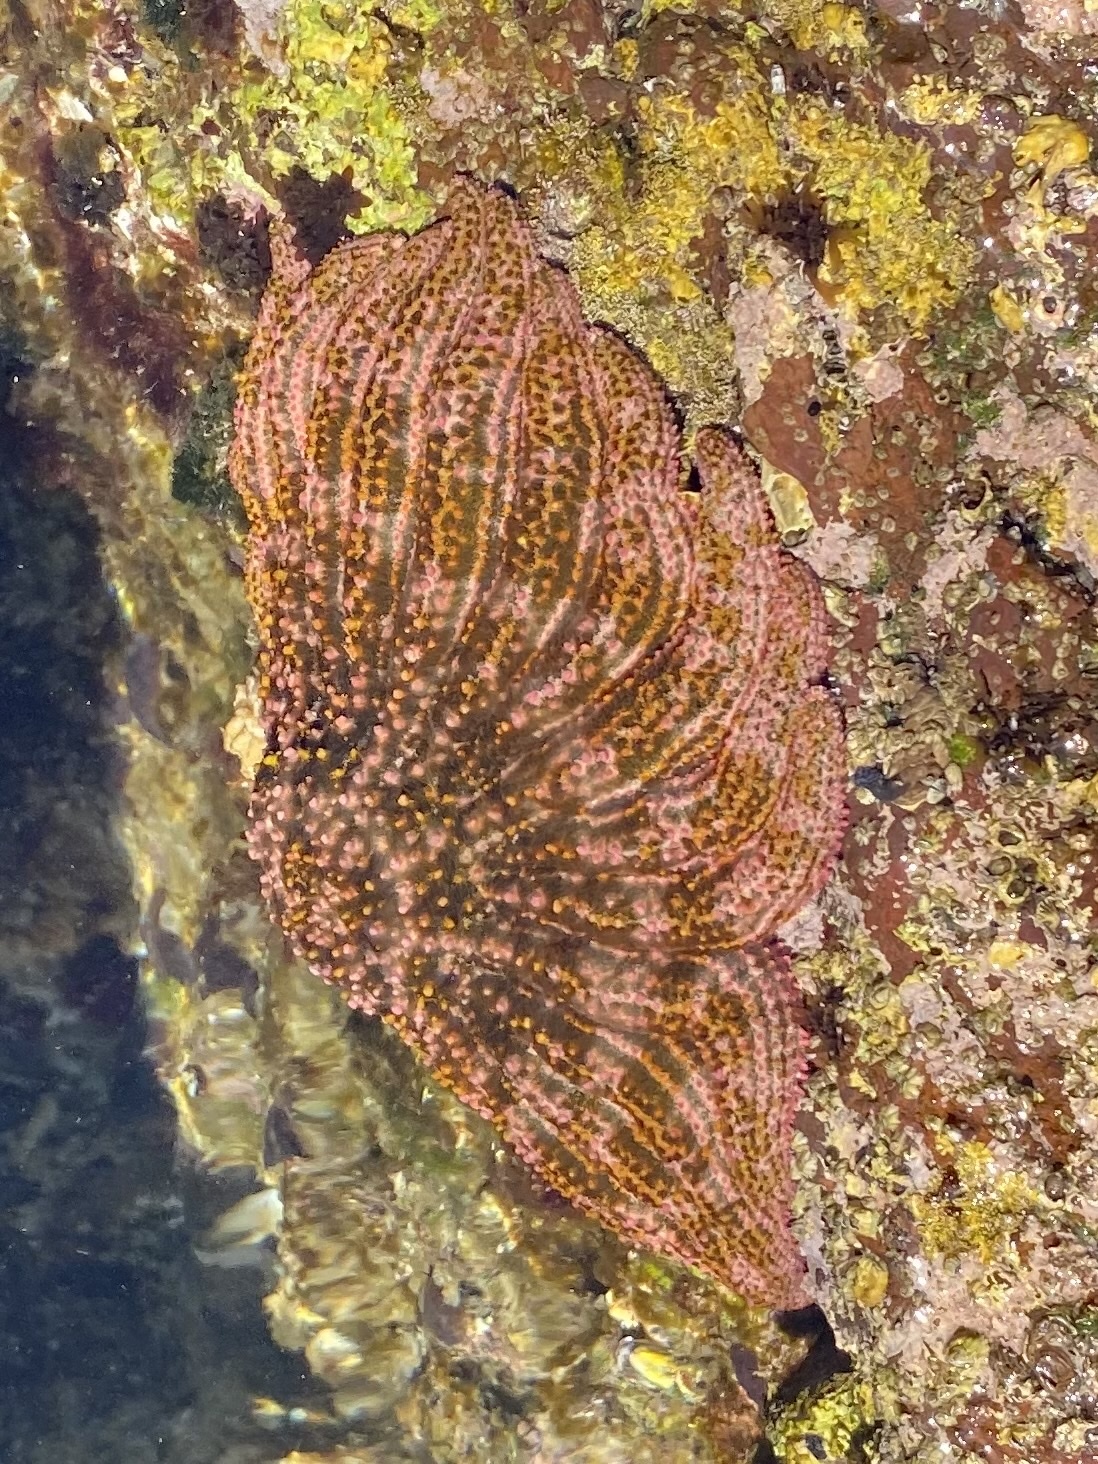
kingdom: Animalia
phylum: Echinodermata
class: Asteroidea
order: Forcipulatida
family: Heliasteridae
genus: Heliaster
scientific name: Heliaster kubiniji
